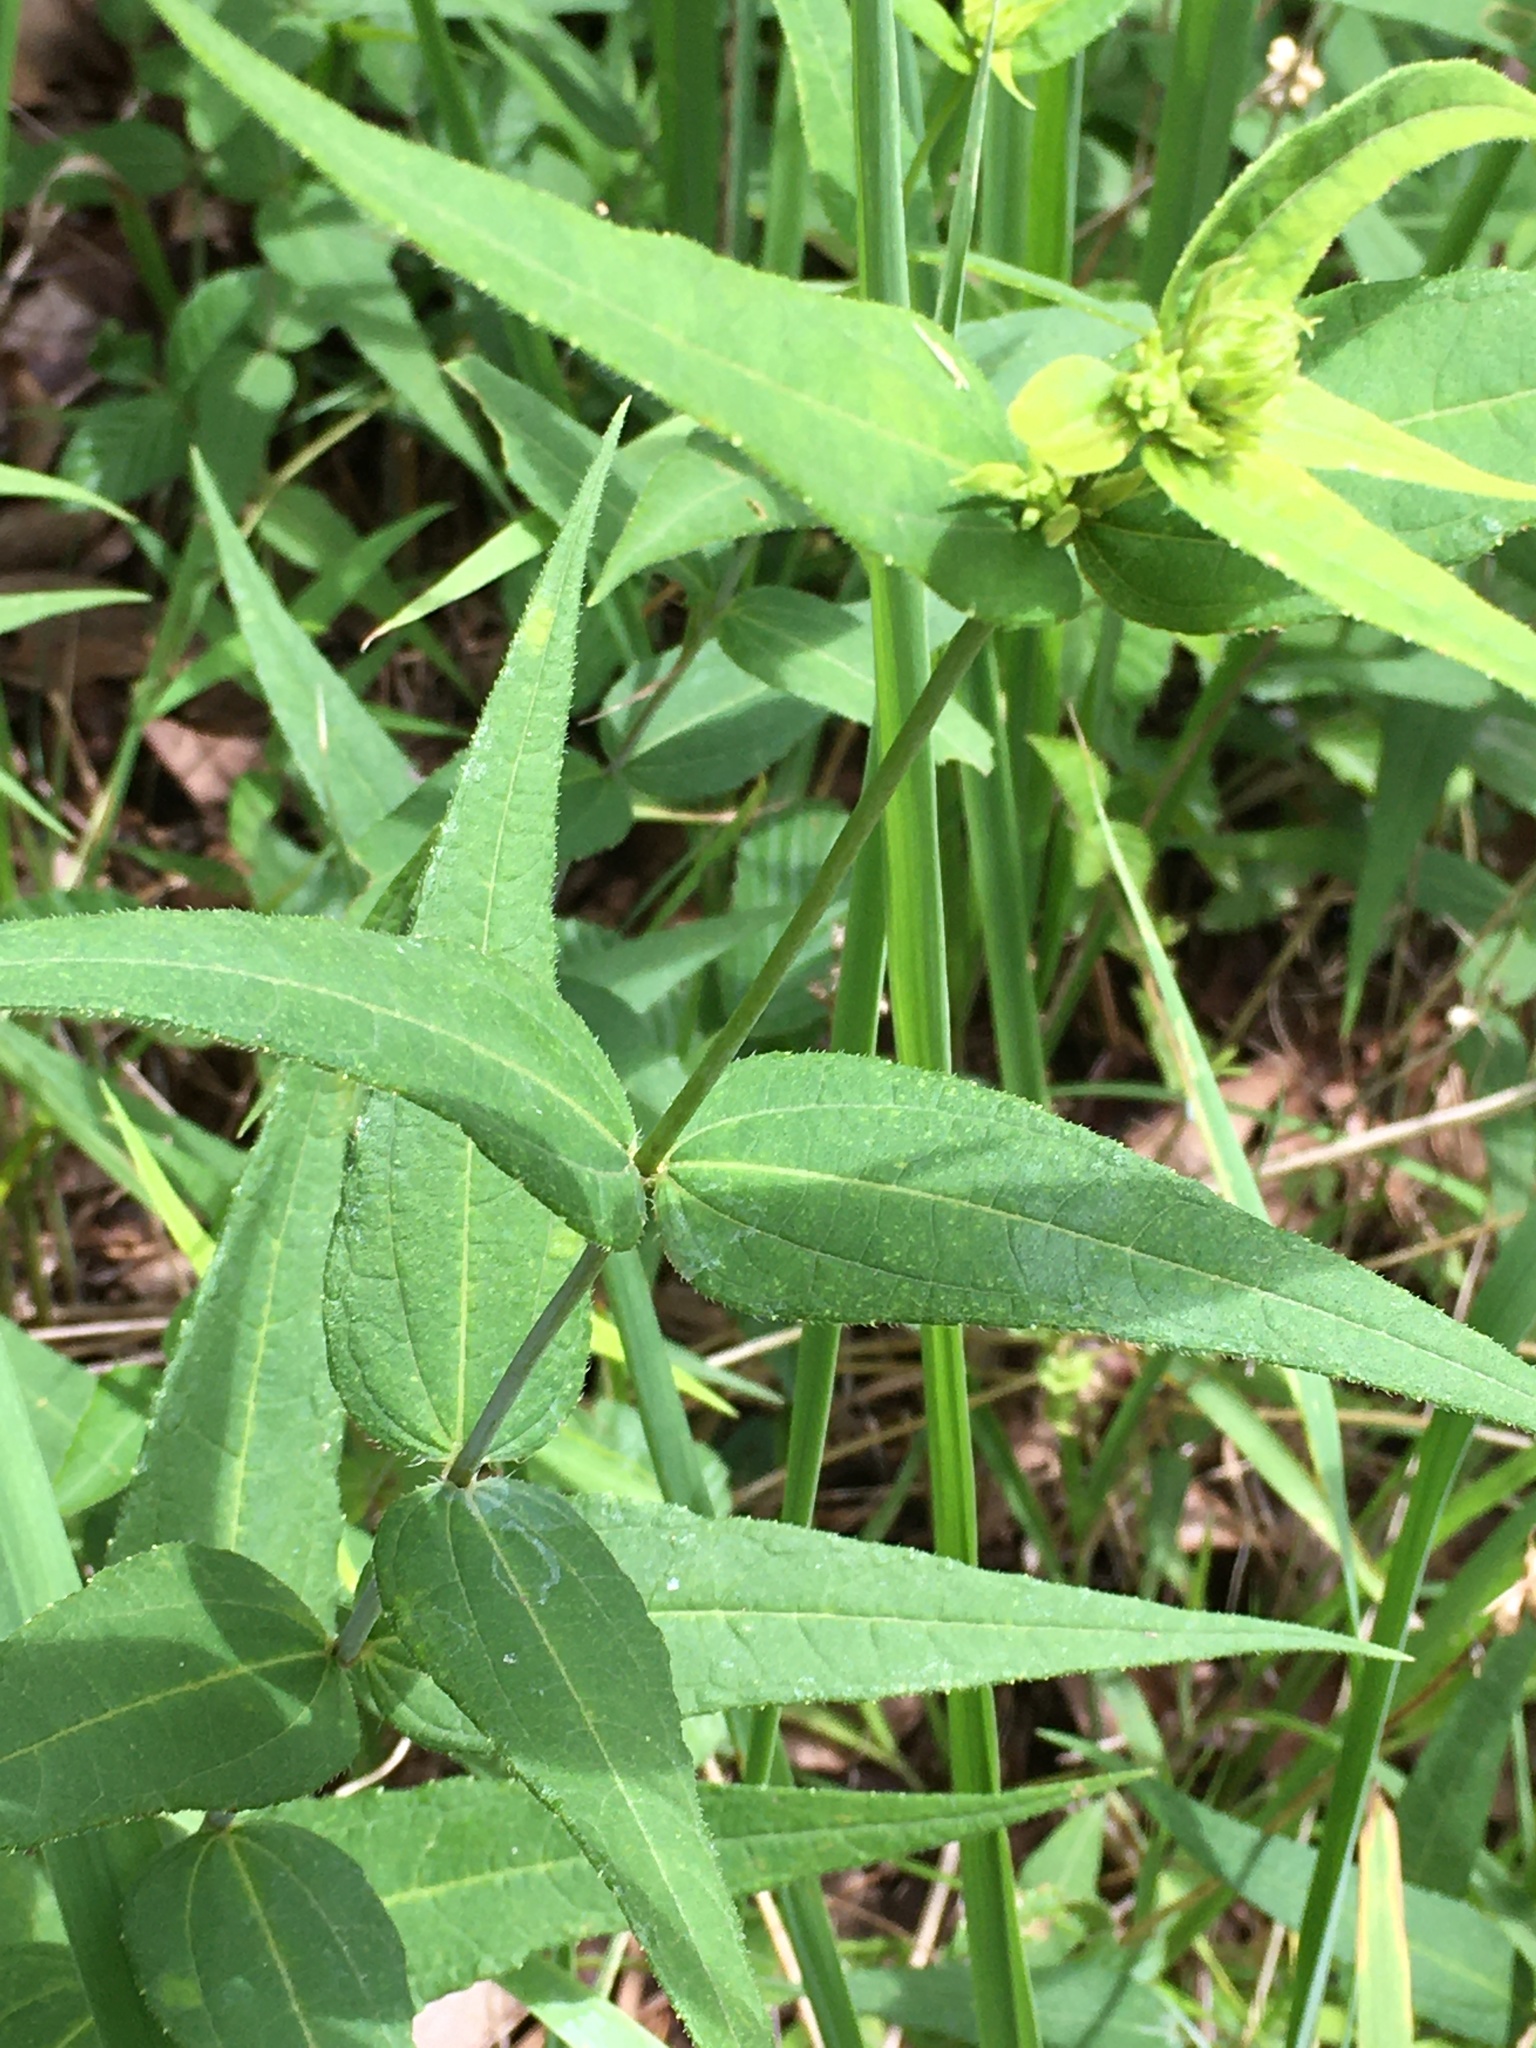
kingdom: Plantae
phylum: Tracheophyta
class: Magnoliopsida
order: Asterales
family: Asteraceae
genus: Helianthus
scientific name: Helianthus divaricatus
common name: Divergent sunflower
